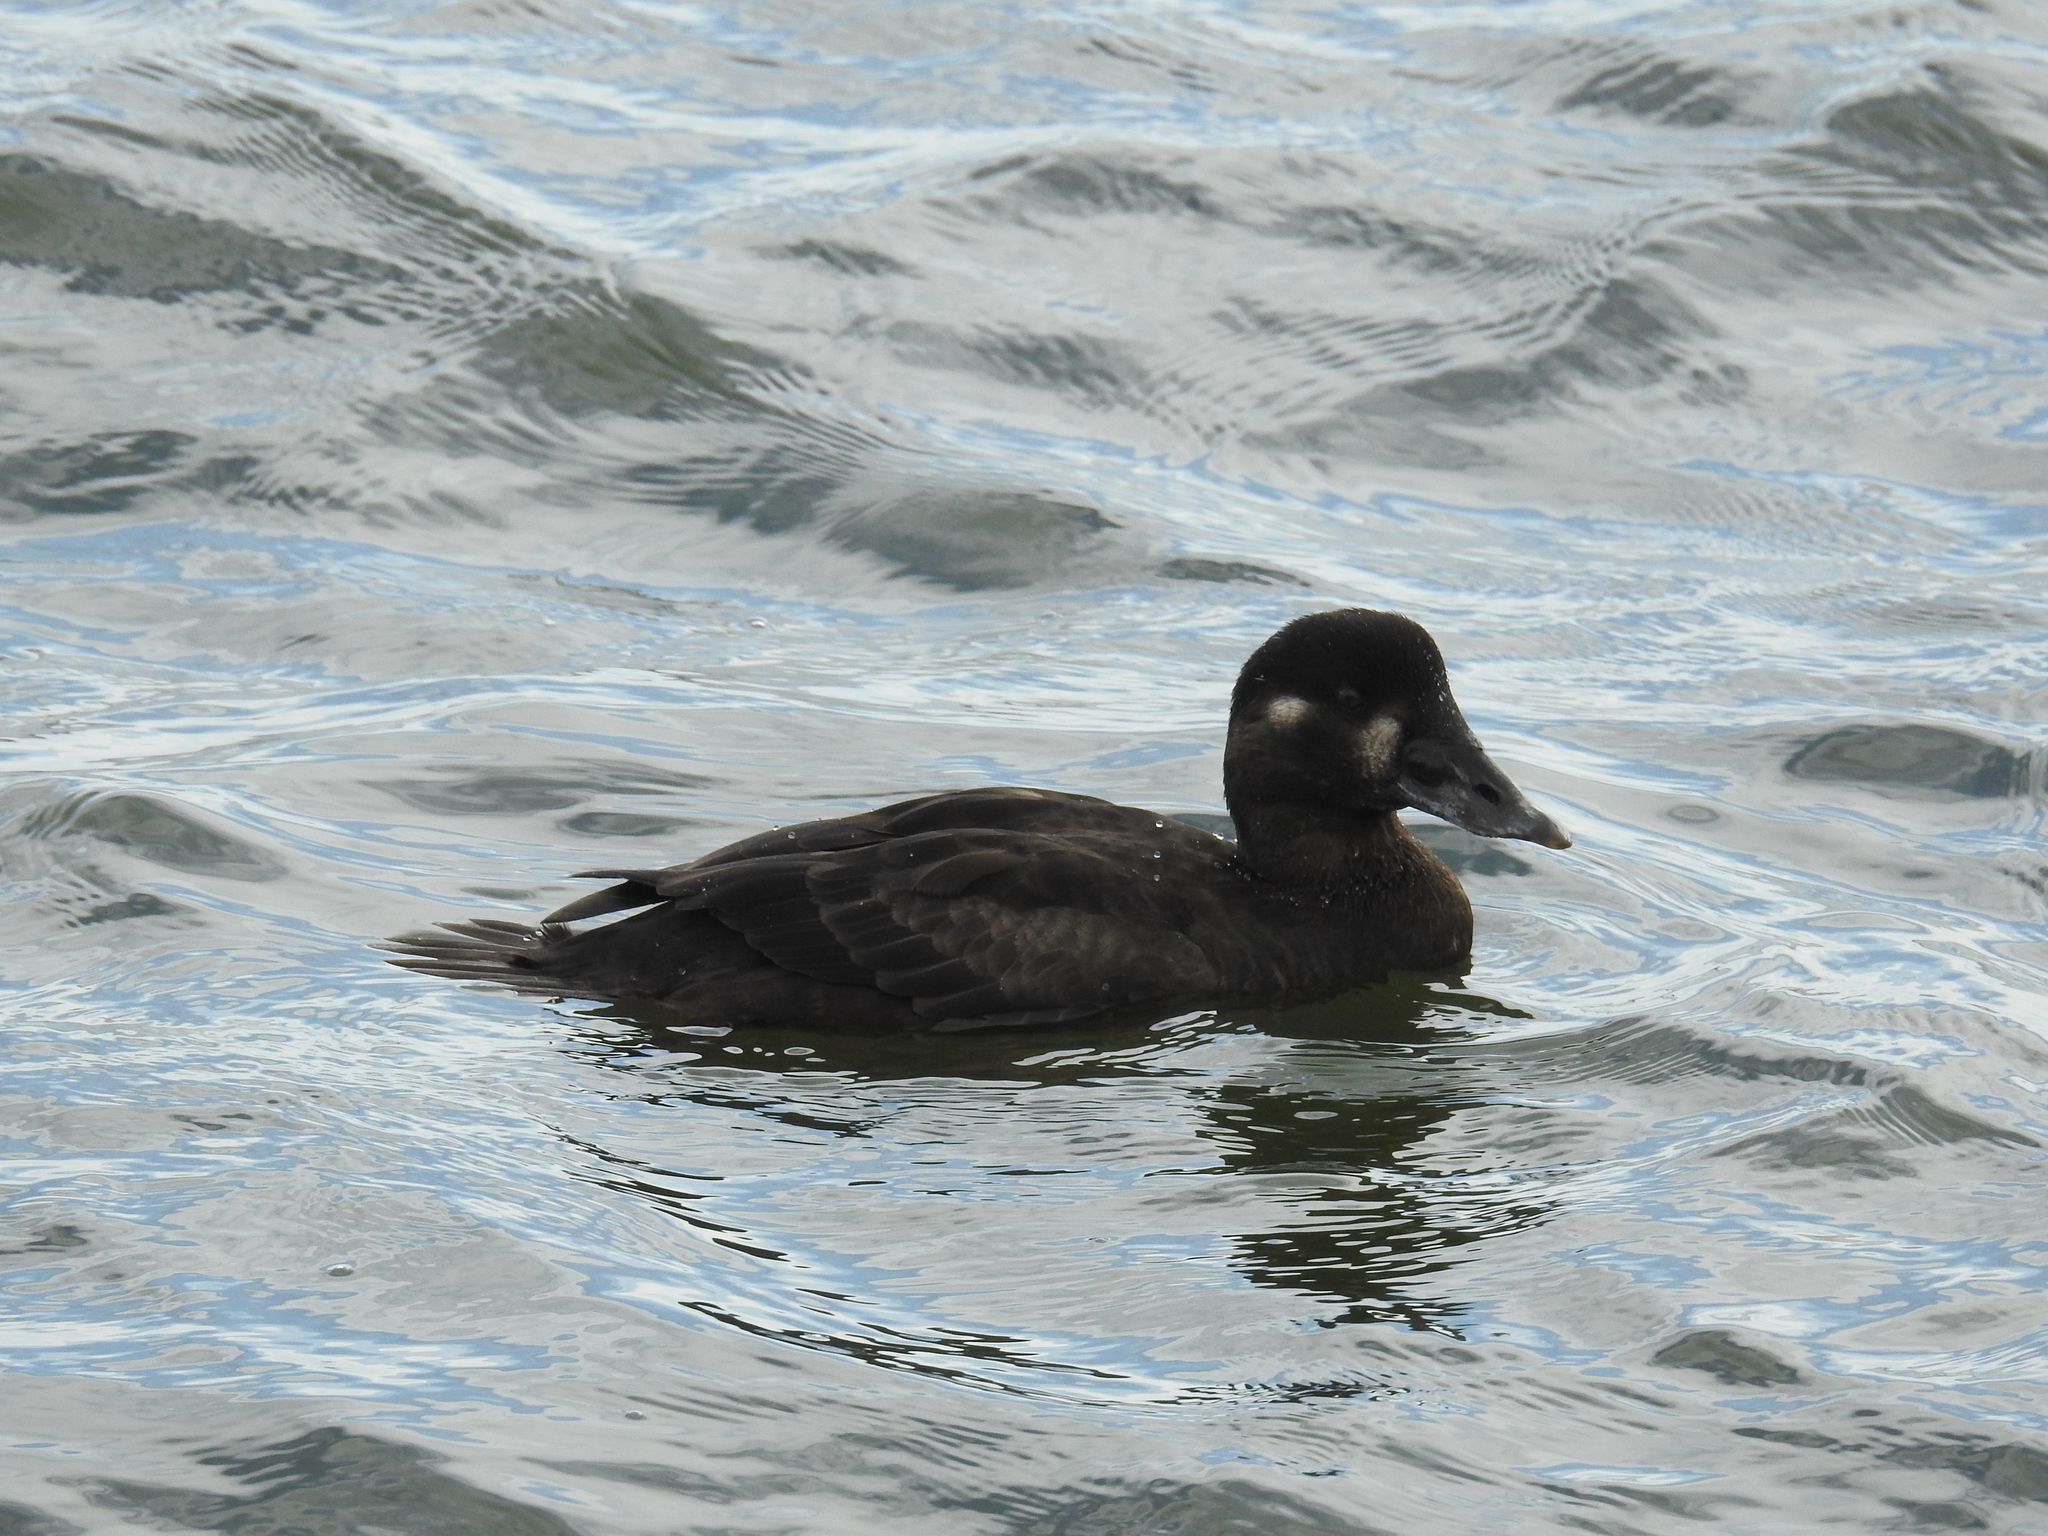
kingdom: Animalia
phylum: Chordata
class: Aves
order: Anseriformes
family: Anatidae
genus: Melanitta
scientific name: Melanitta perspicillata
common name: Surf scoter
